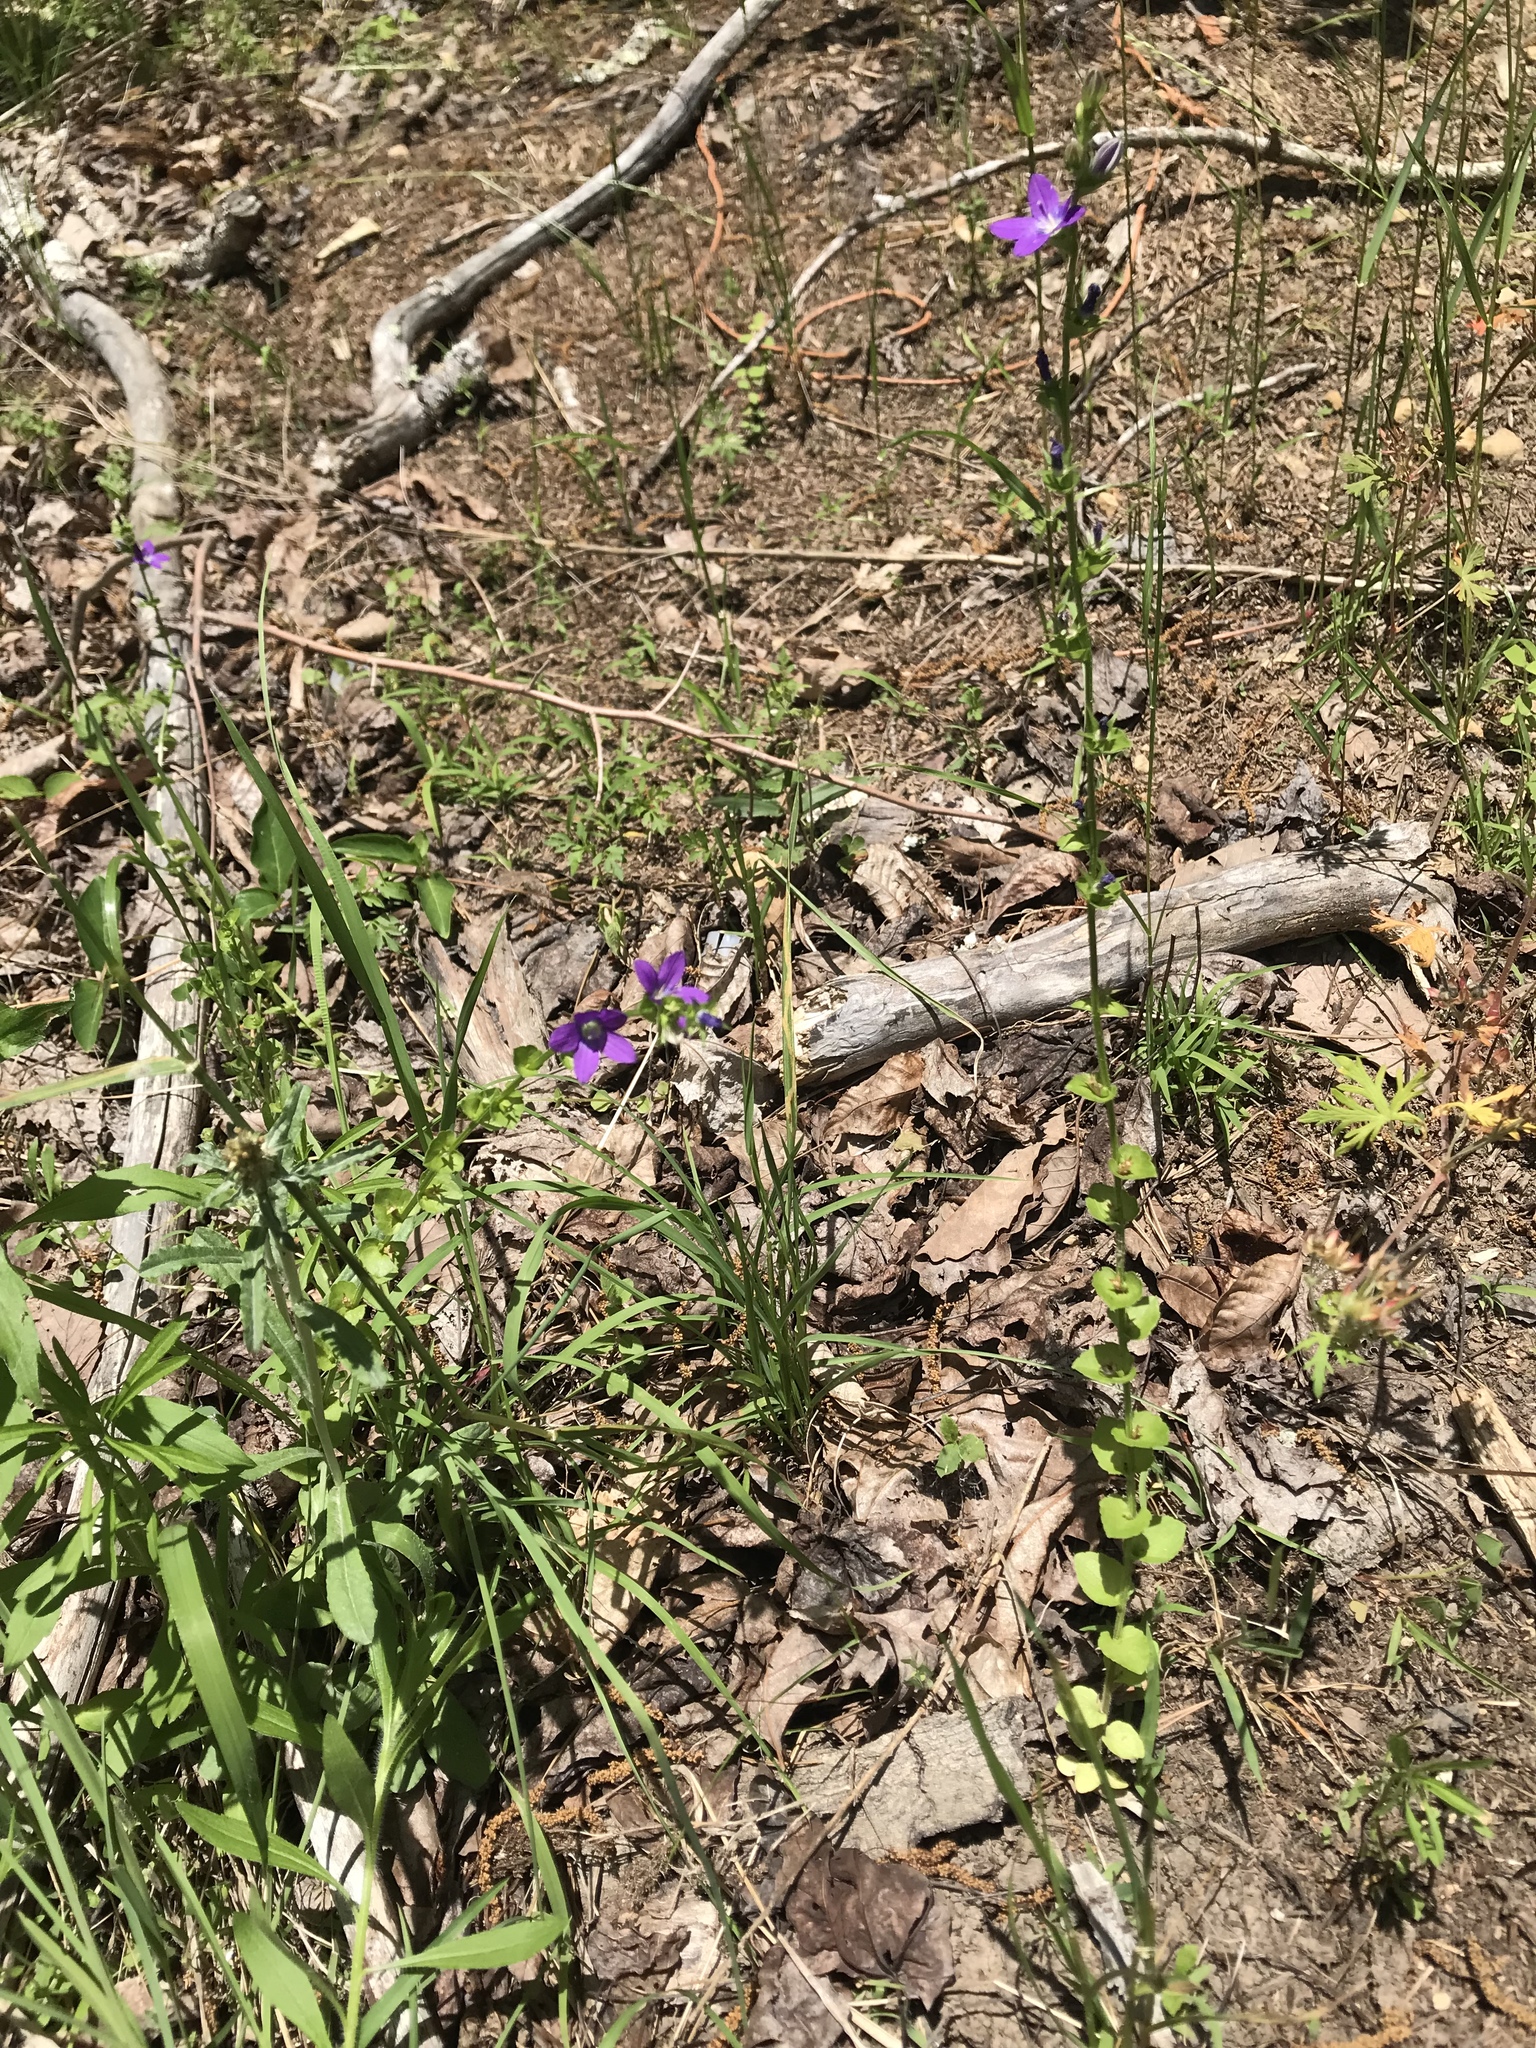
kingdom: Plantae
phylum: Tracheophyta
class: Magnoliopsida
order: Asterales
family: Campanulaceae
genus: Triodanis
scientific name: Triodanis perfoliata
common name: Clasping venus' looking-glass
